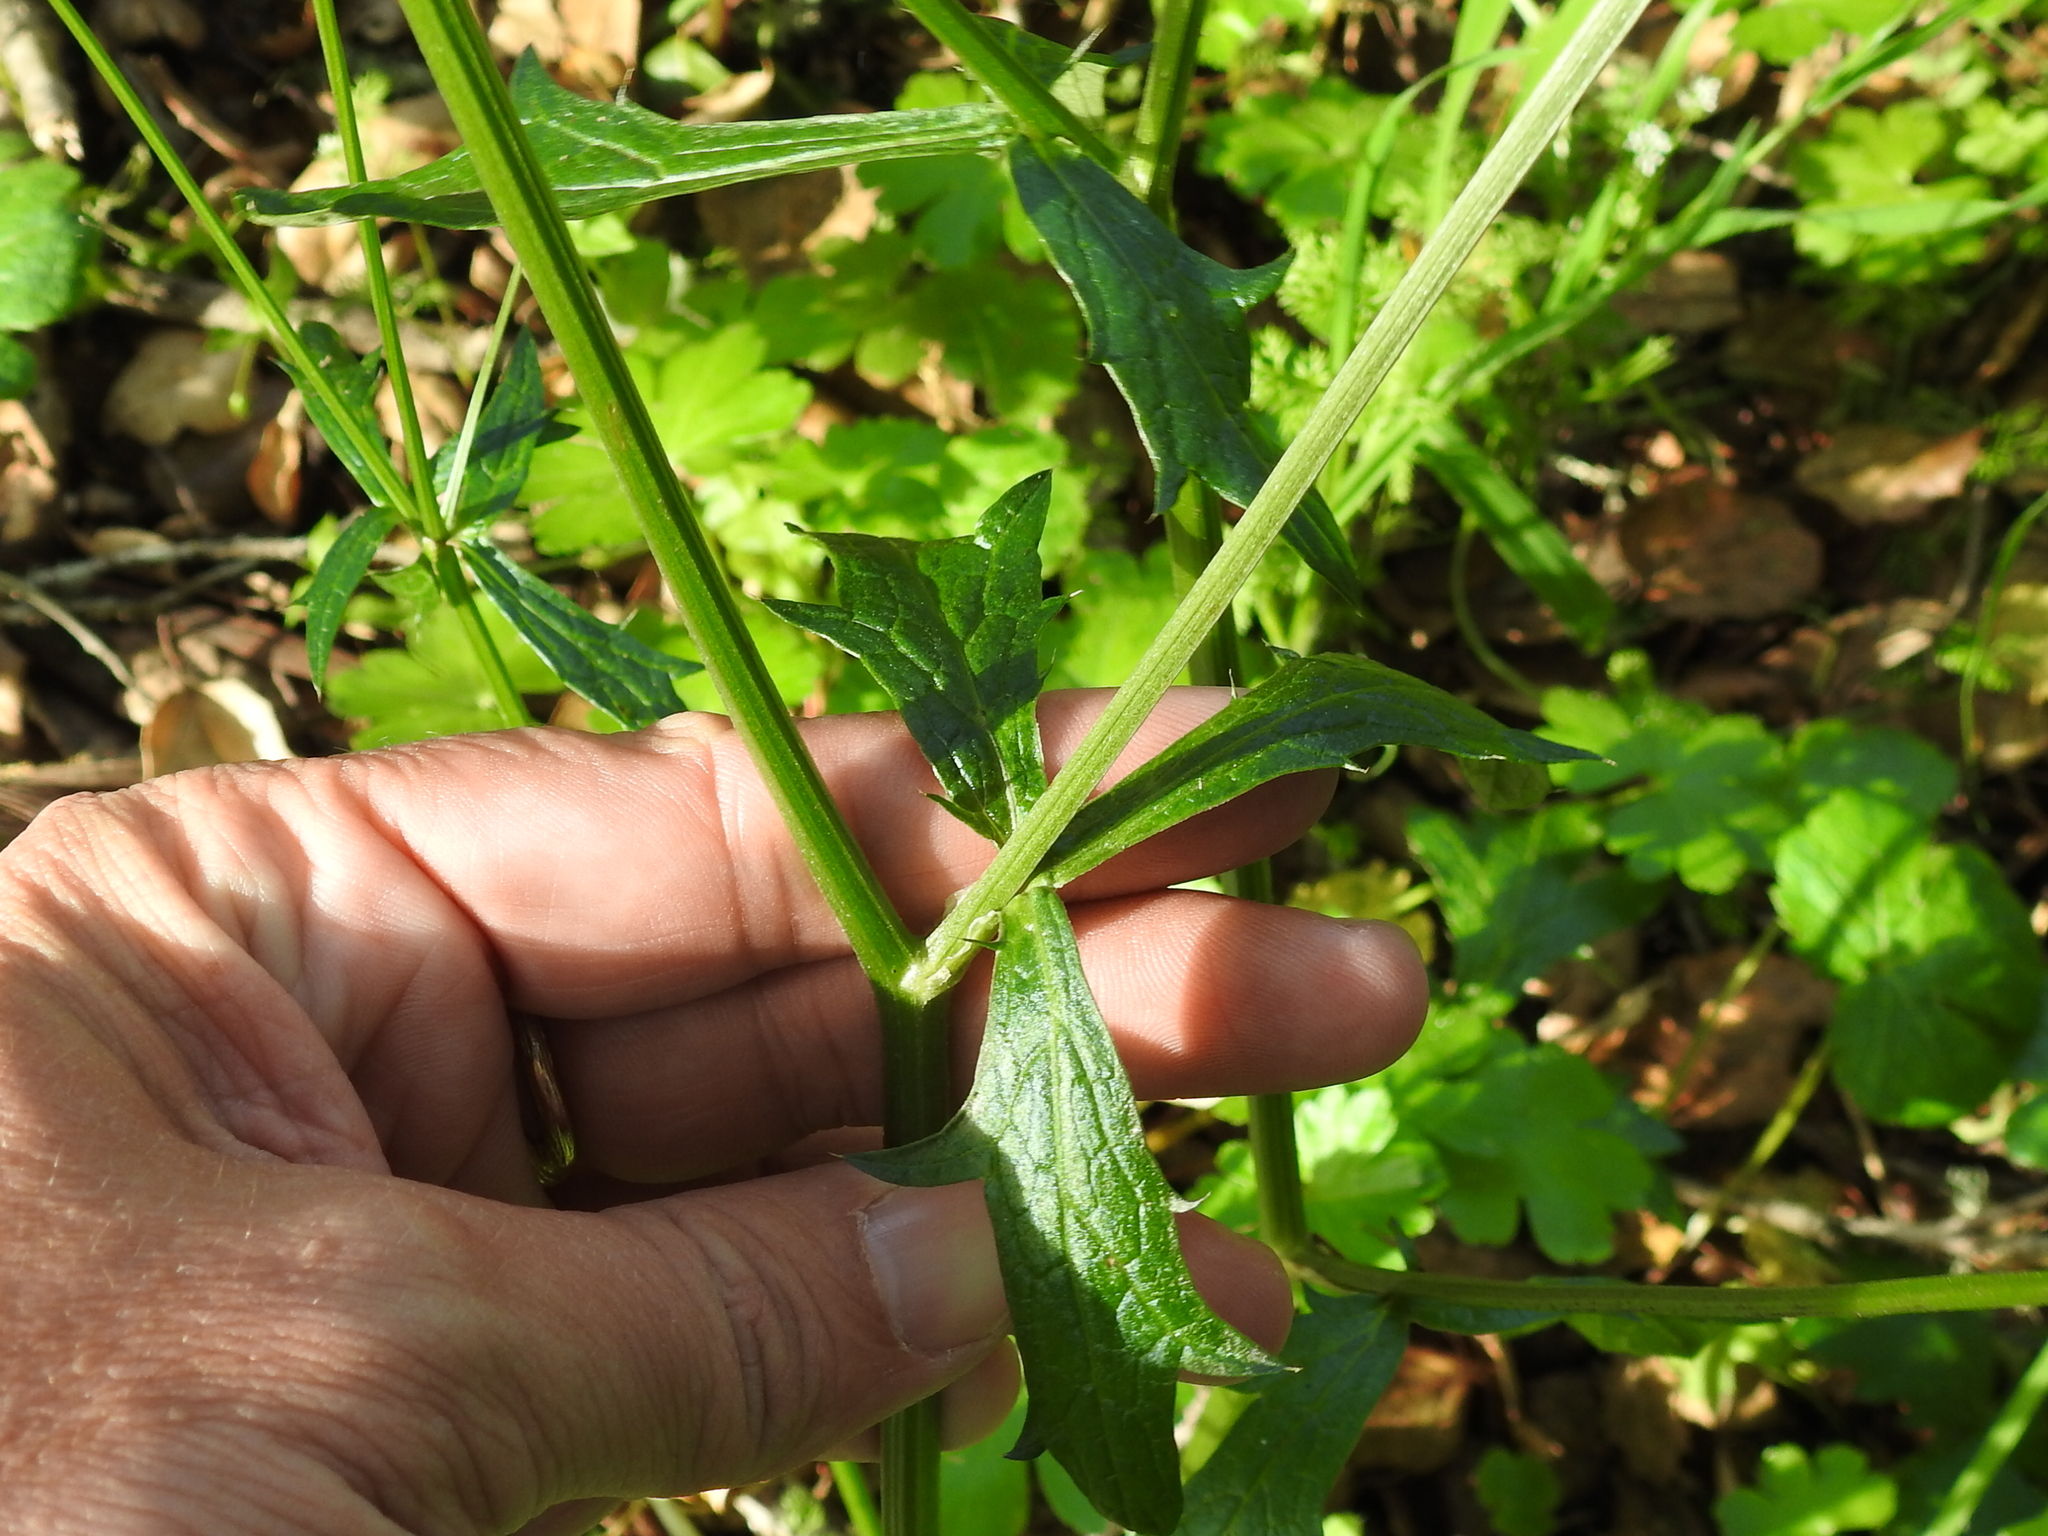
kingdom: Plantae
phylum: Tracheophyta
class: Magnoliopsida
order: Apiales
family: Apiaceae
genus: Sanicula
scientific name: Sanicula crassicaulis
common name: Western snakeroot
